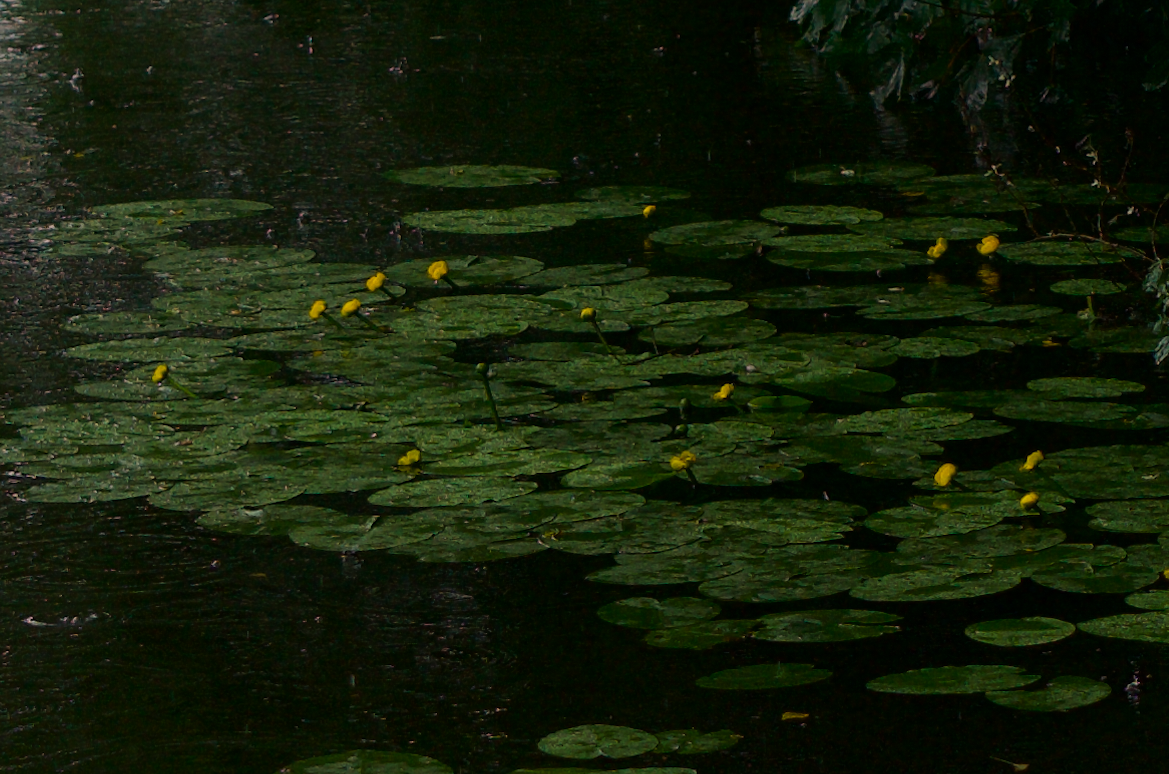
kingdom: Plantae
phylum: Tracheophyta
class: Magnoliopsida
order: Nymphaeales
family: Nymphaeaceae
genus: Nuphar
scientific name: Nuphar lutea
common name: Yellow water-lily
